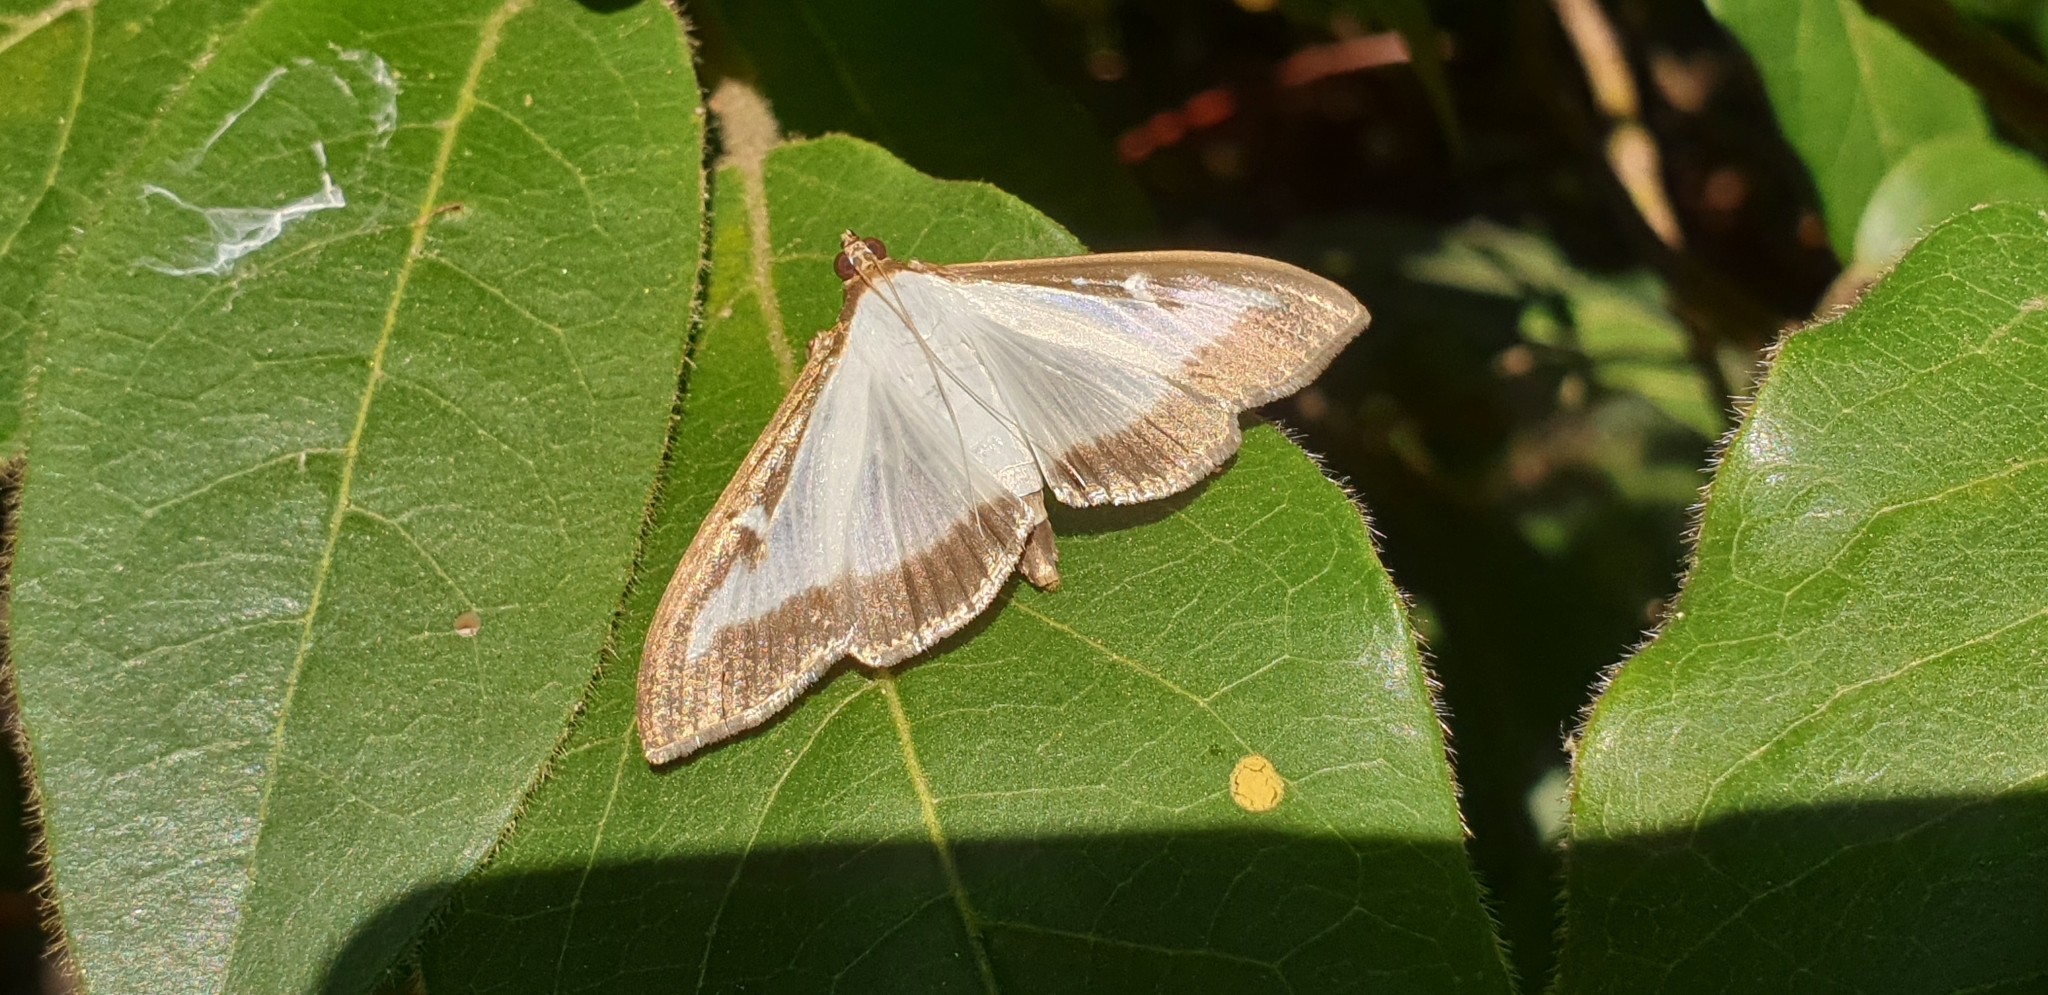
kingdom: Animalia
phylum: Arthropoda
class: Insecta
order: Lepidoptera
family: Crambidae
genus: Cydalima
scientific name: Cydalima perspectalis
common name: Box tree moth
